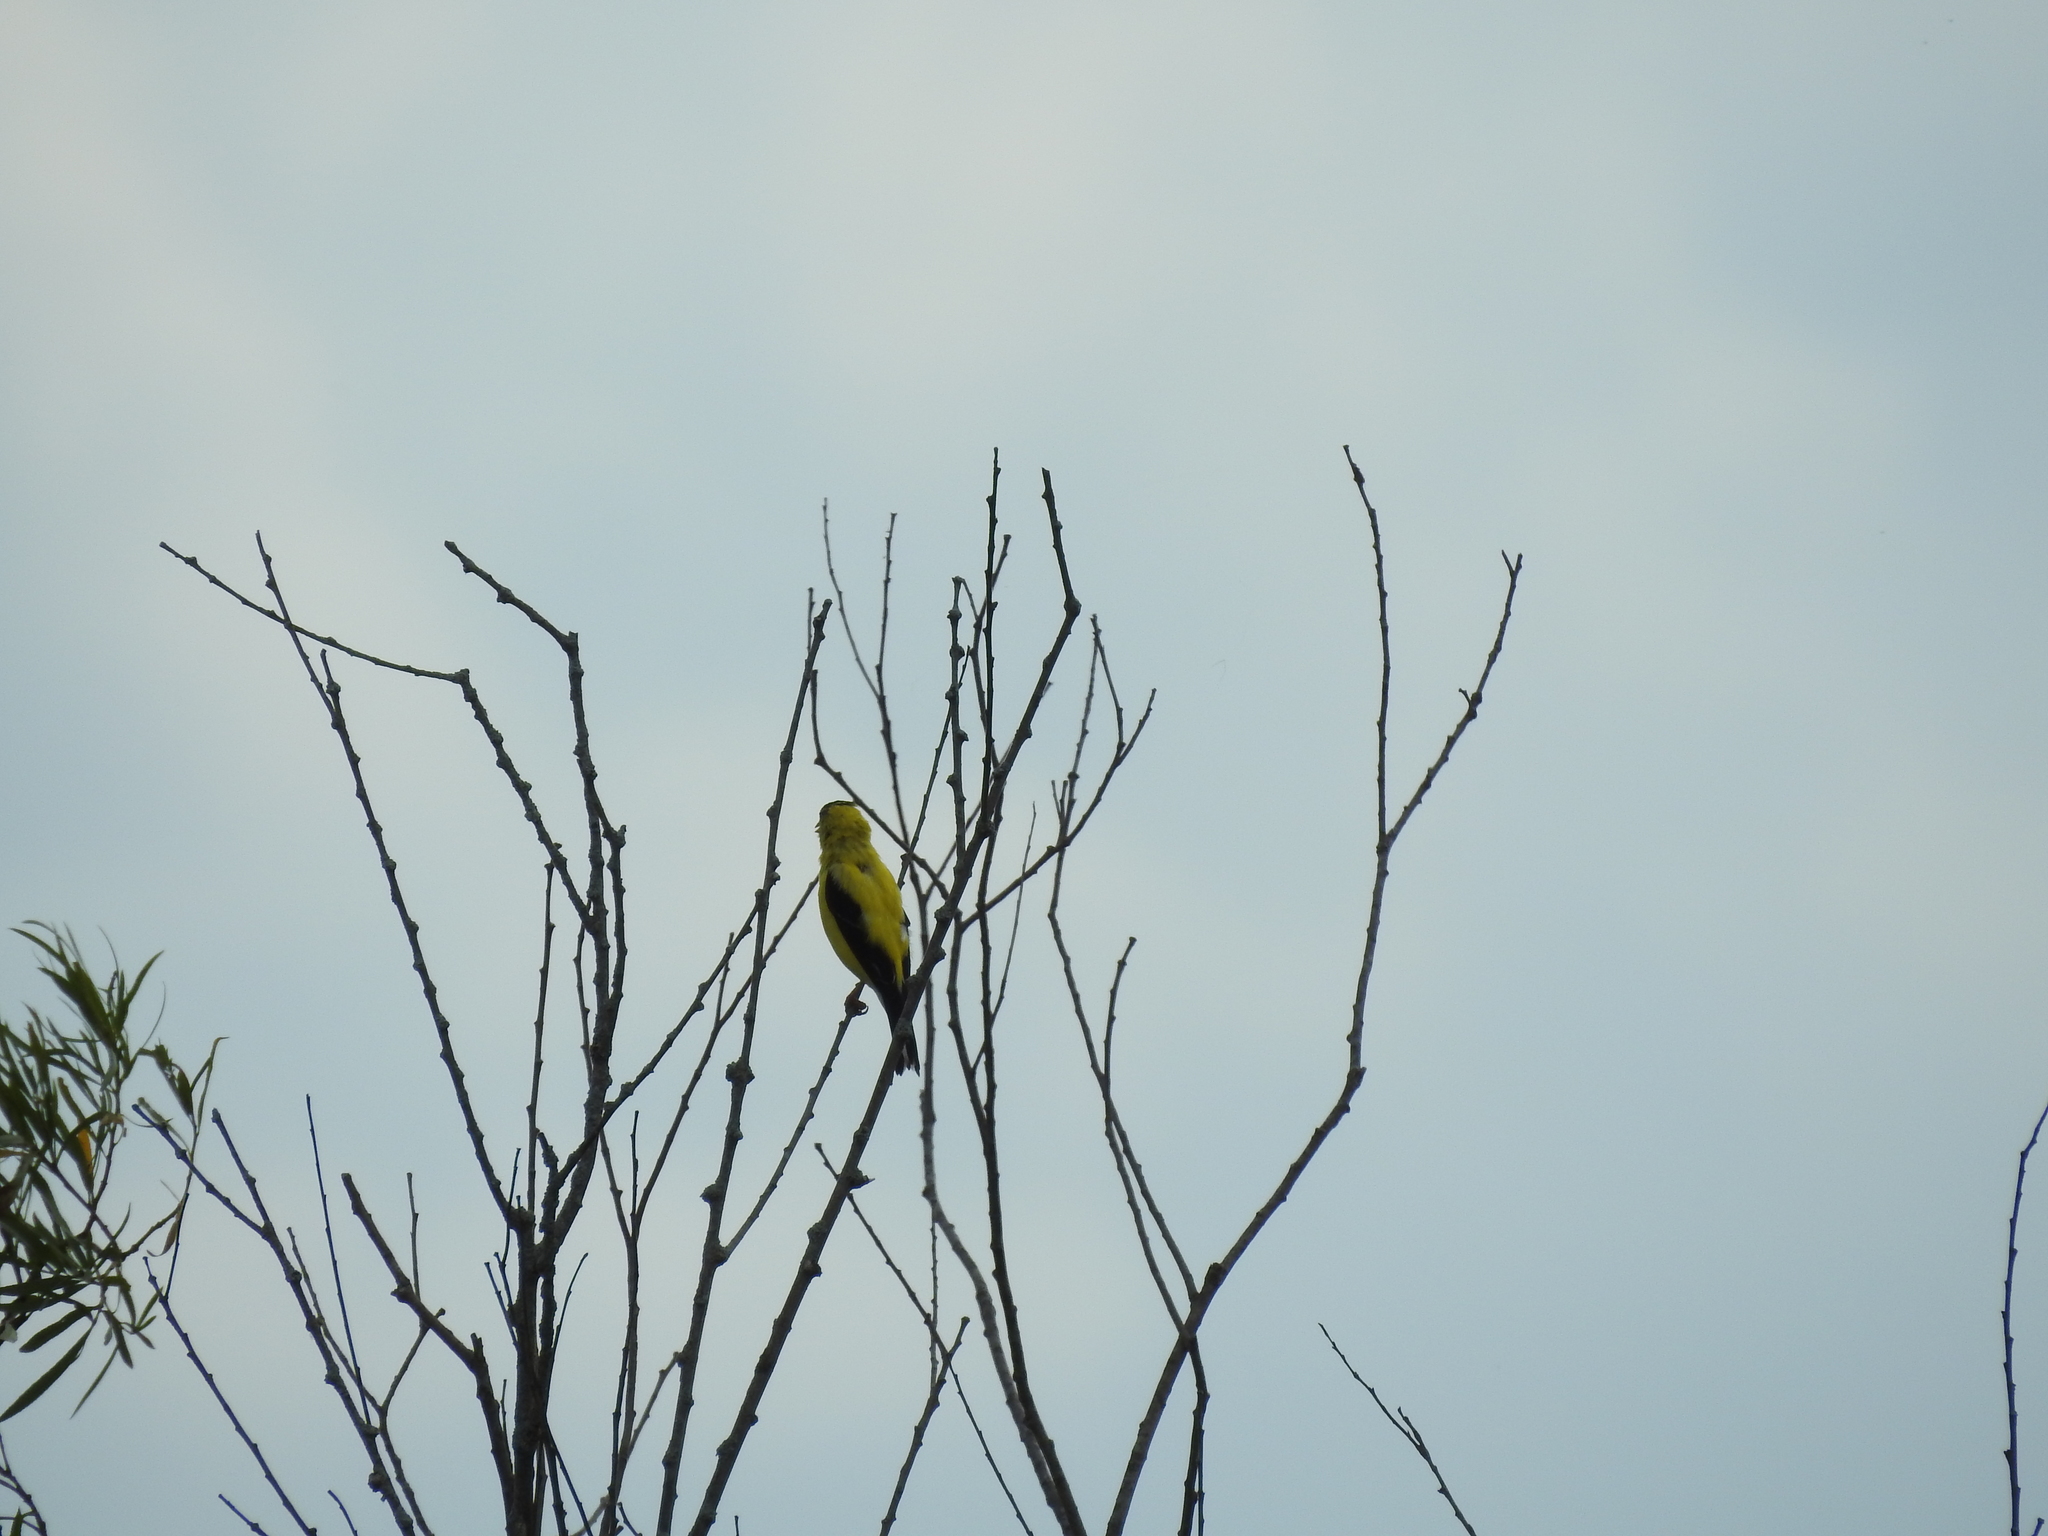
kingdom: Animalia
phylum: Chordata
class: Aves
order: Passeriformes
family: Fringillidae
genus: Spinus
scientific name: Spinus tristis
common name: American goldfinch
